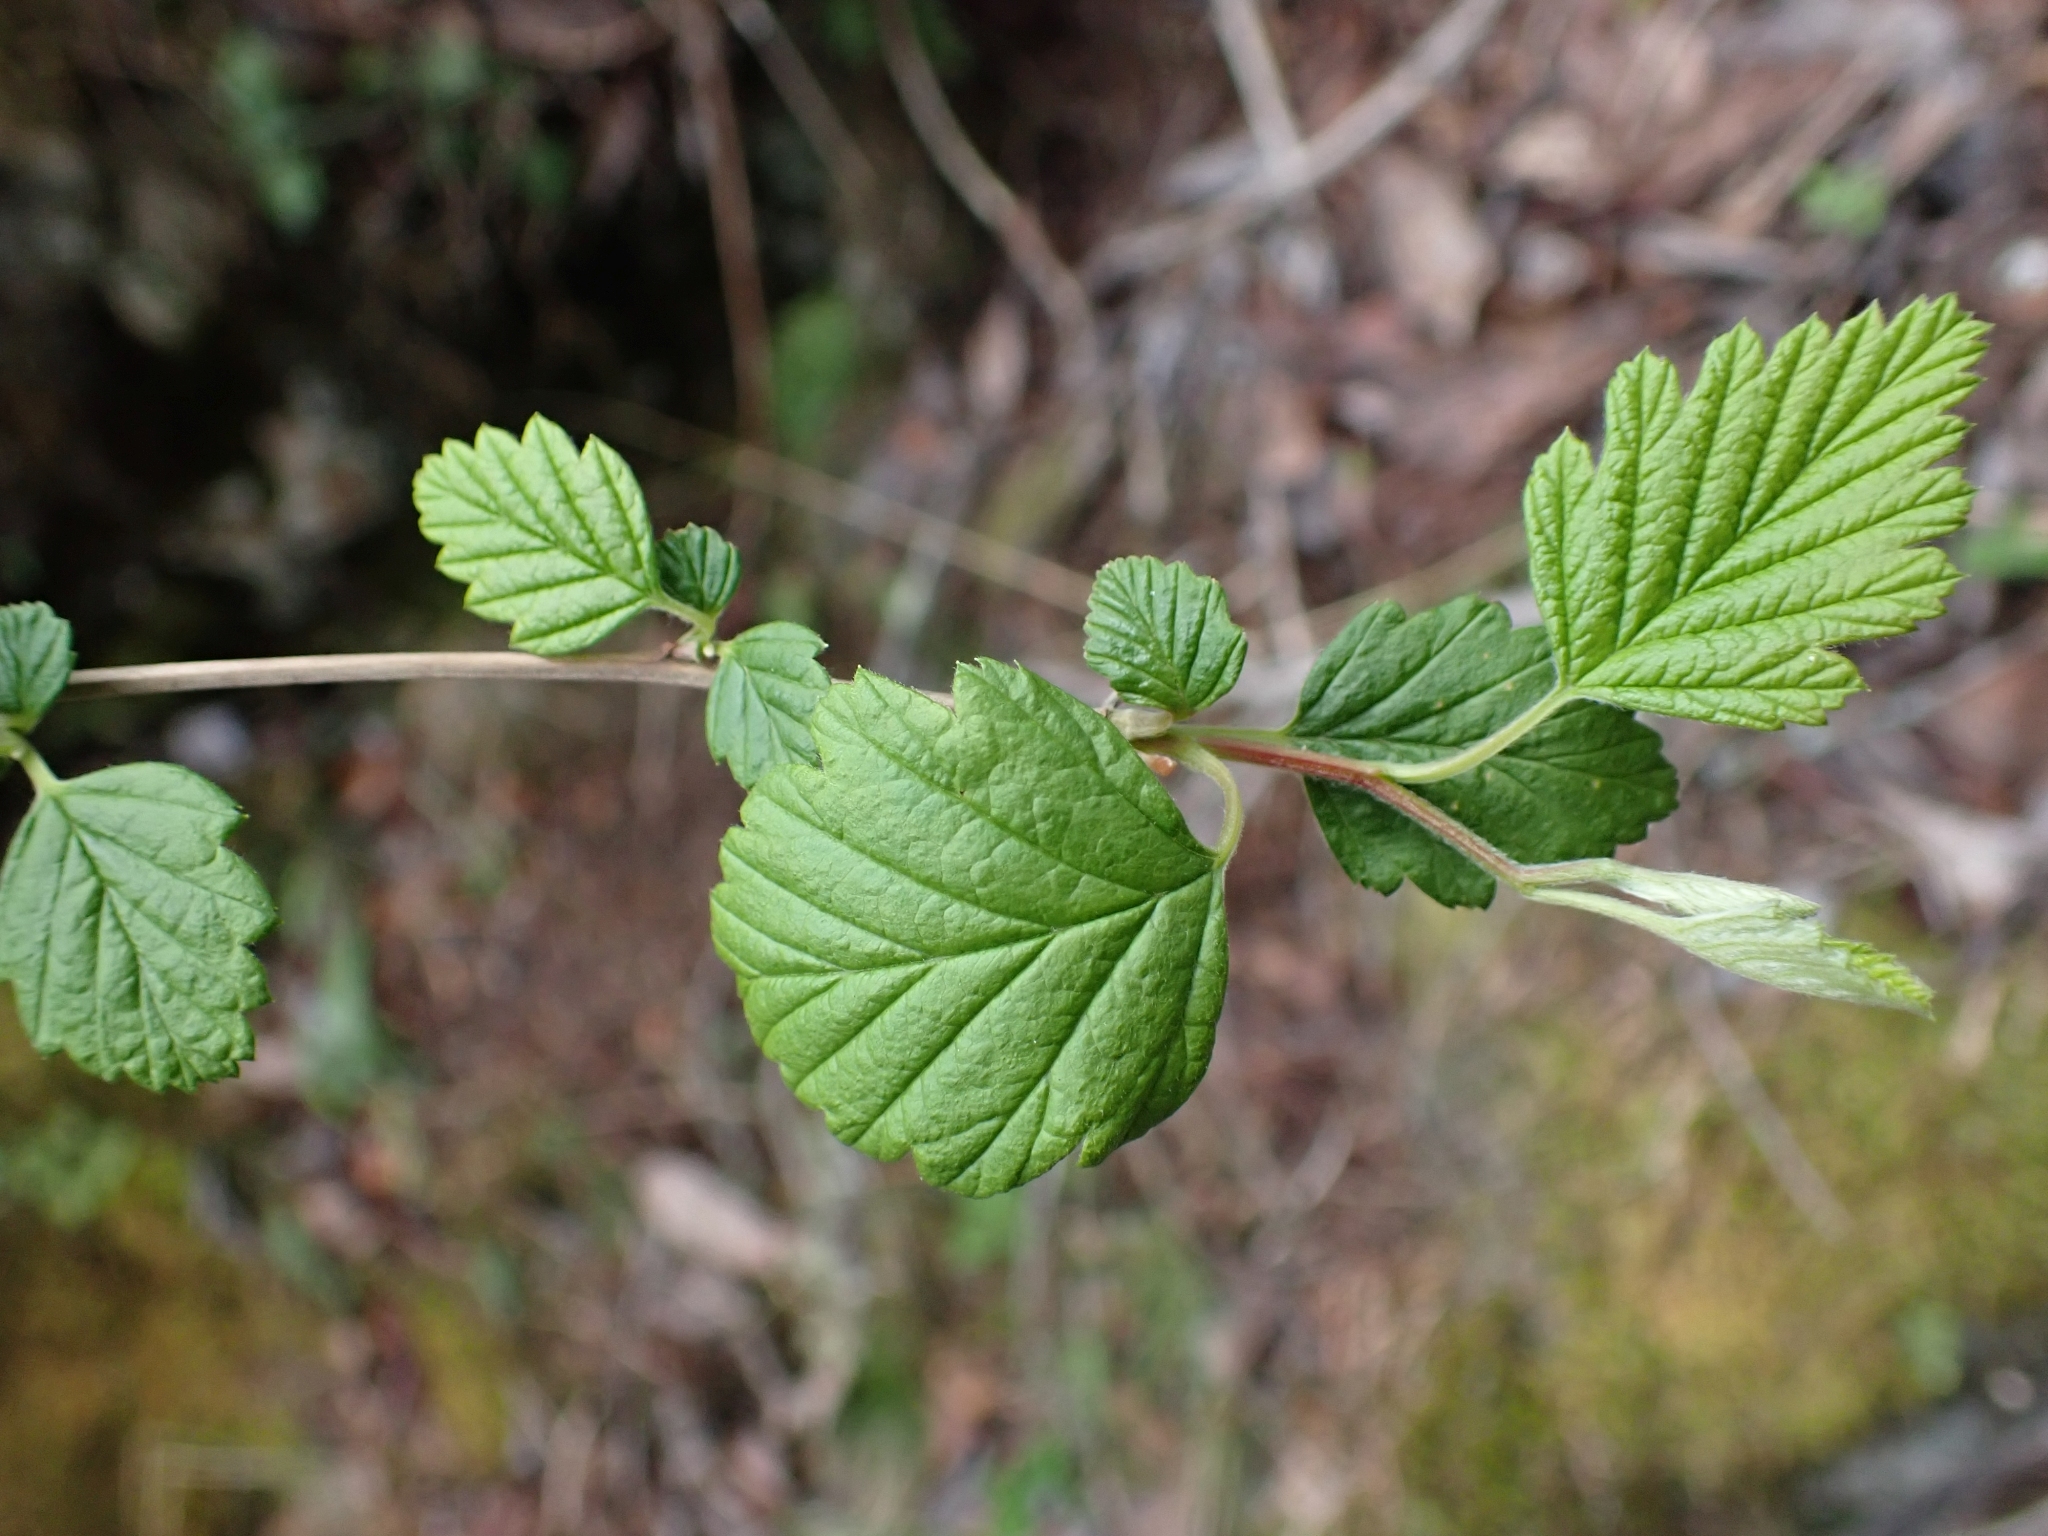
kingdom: Plantae
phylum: Tracheophyta
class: Magnoliopsida
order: Rosales
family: Rosaceae
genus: Holodiscus
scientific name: Holodiscus discolor
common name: Oceanspray
